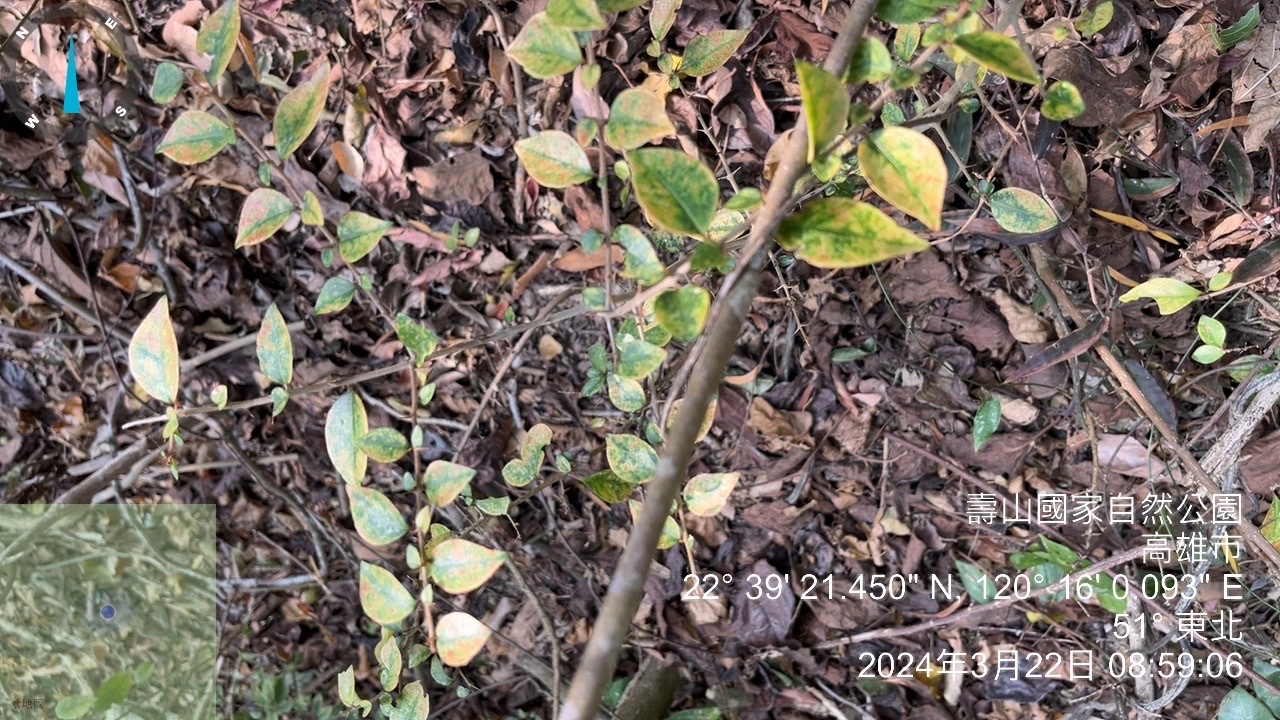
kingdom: Plantae
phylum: Tracheophyta
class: Magnoliopsida
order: Caryophyllales
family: Nyctaginaceae
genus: Pisonia
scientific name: Pisonia aculeata
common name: Cockspur vine
